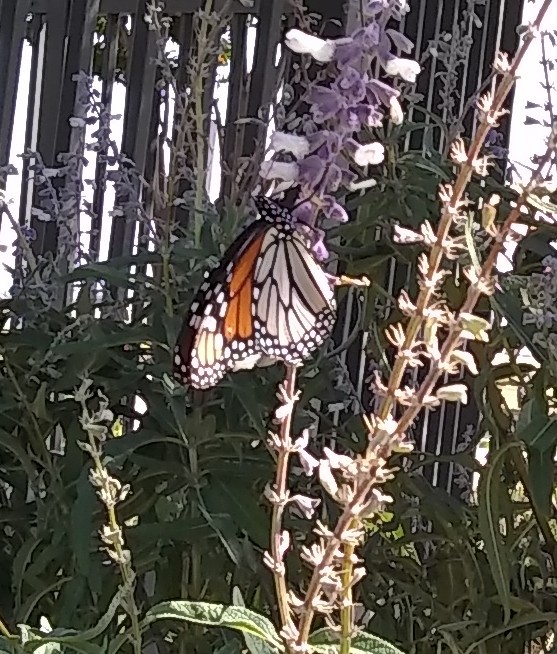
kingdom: Animalia
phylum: Arthropoda
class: Insecta
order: Lepidoptera
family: Nymphalidae
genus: Danaus
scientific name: Danaus plexippus
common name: Monarch
